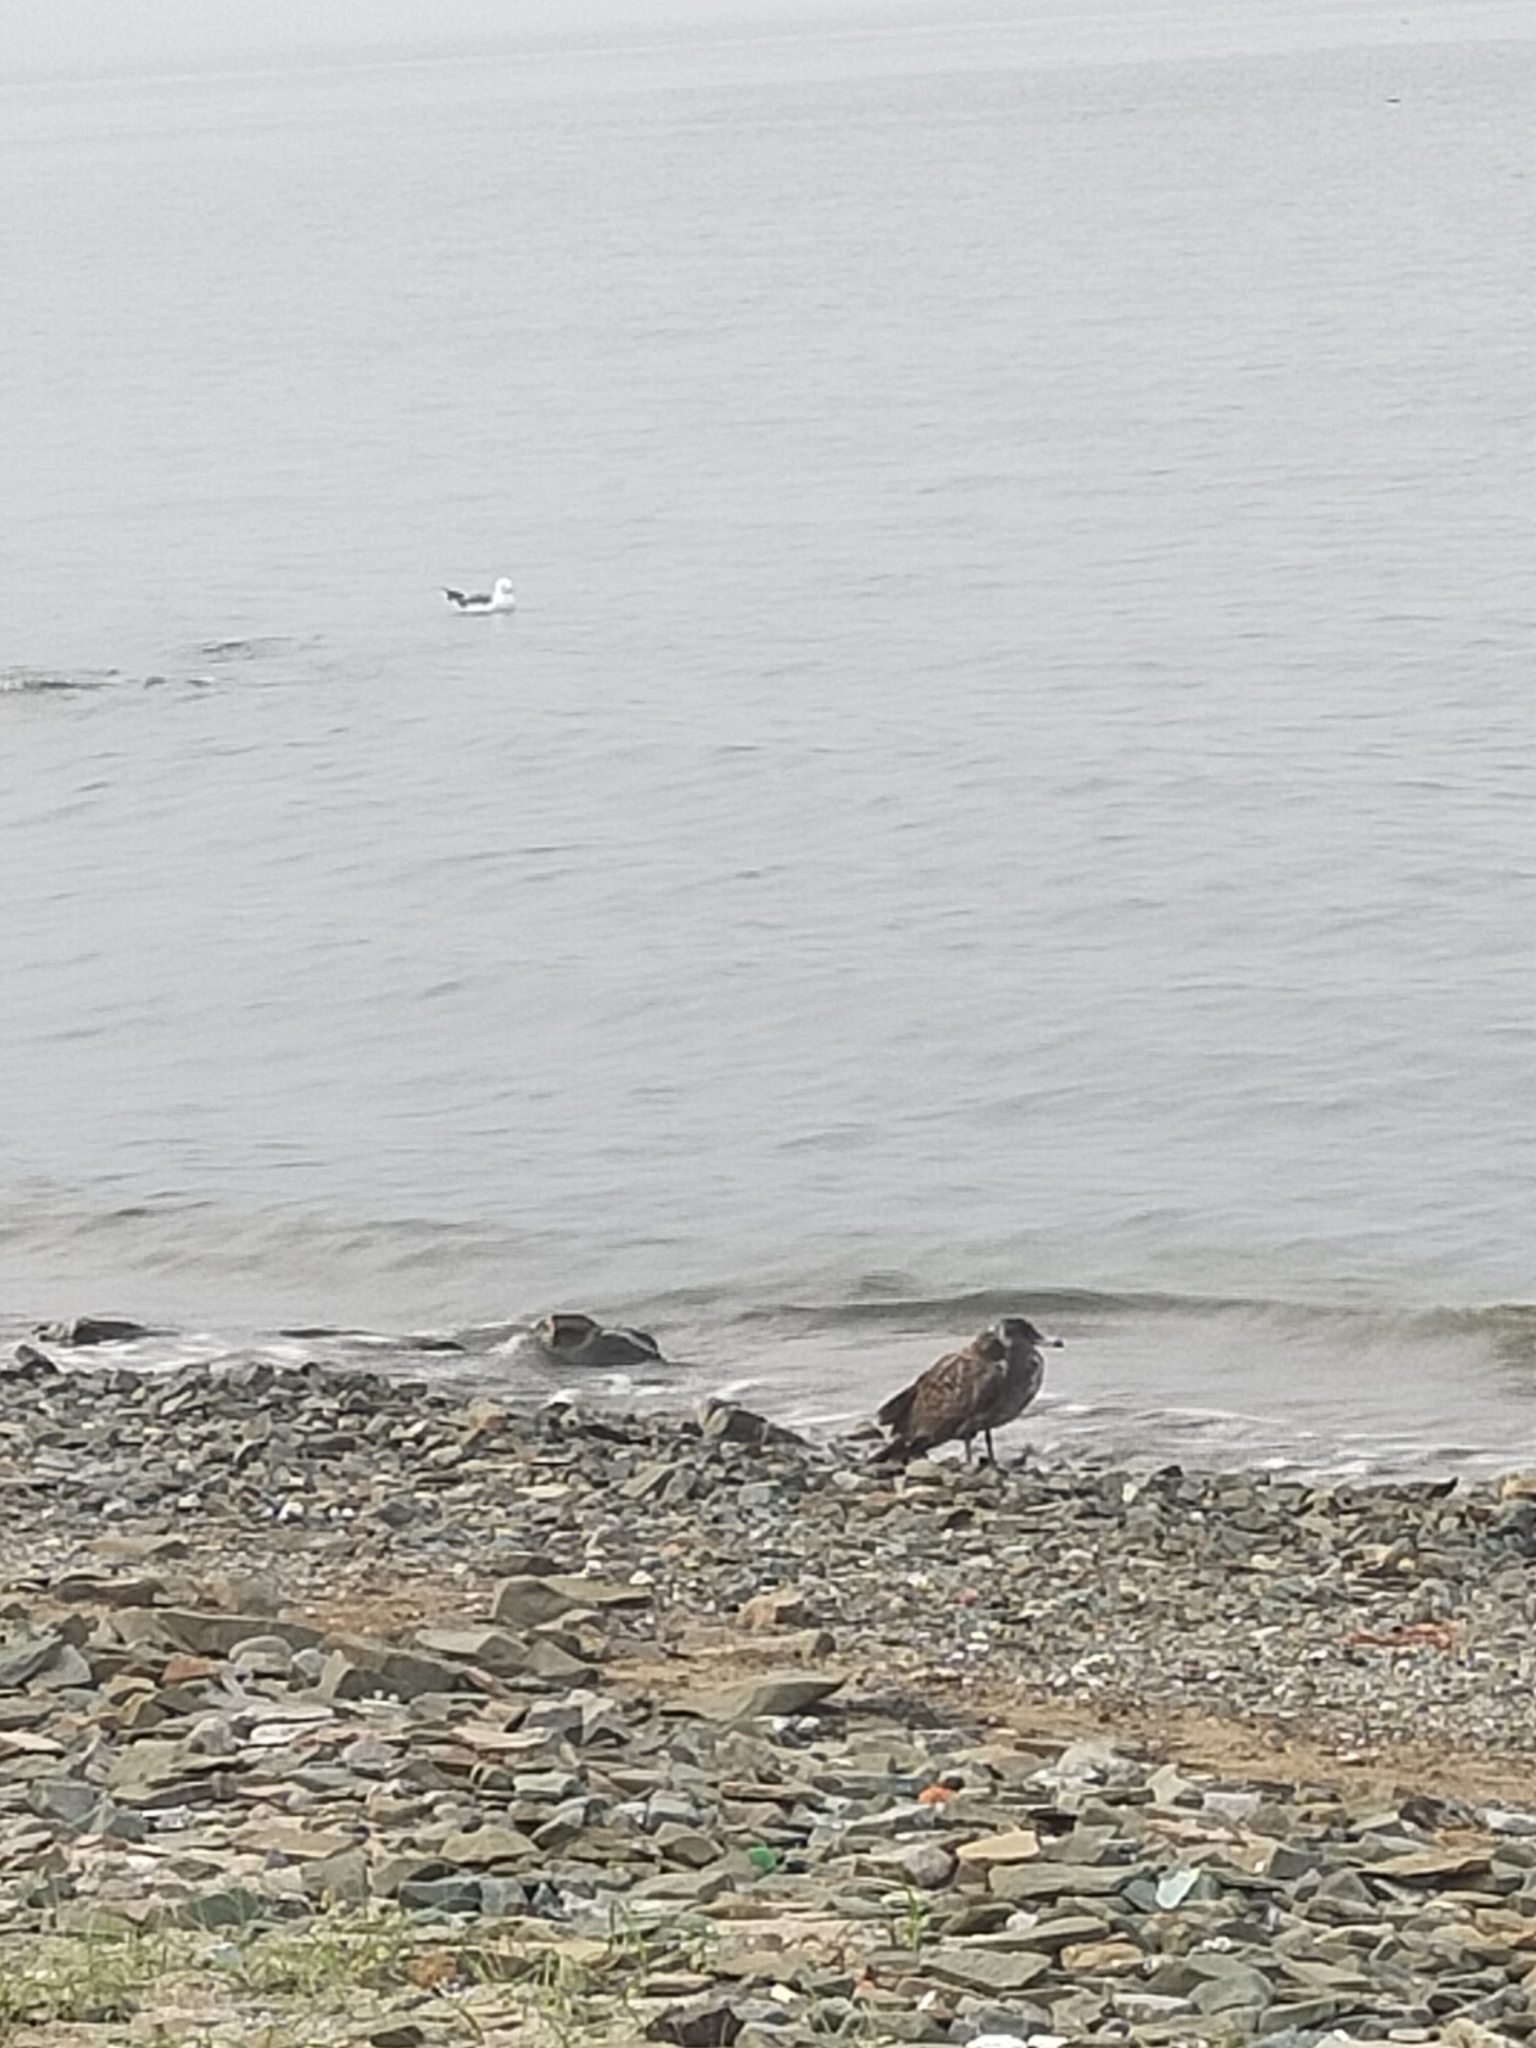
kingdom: Animalia
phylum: Chordata
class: Aves
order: Charadriiformes
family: Laridae
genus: Larus
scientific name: Larus crassirostris
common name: Black-tailed gull
